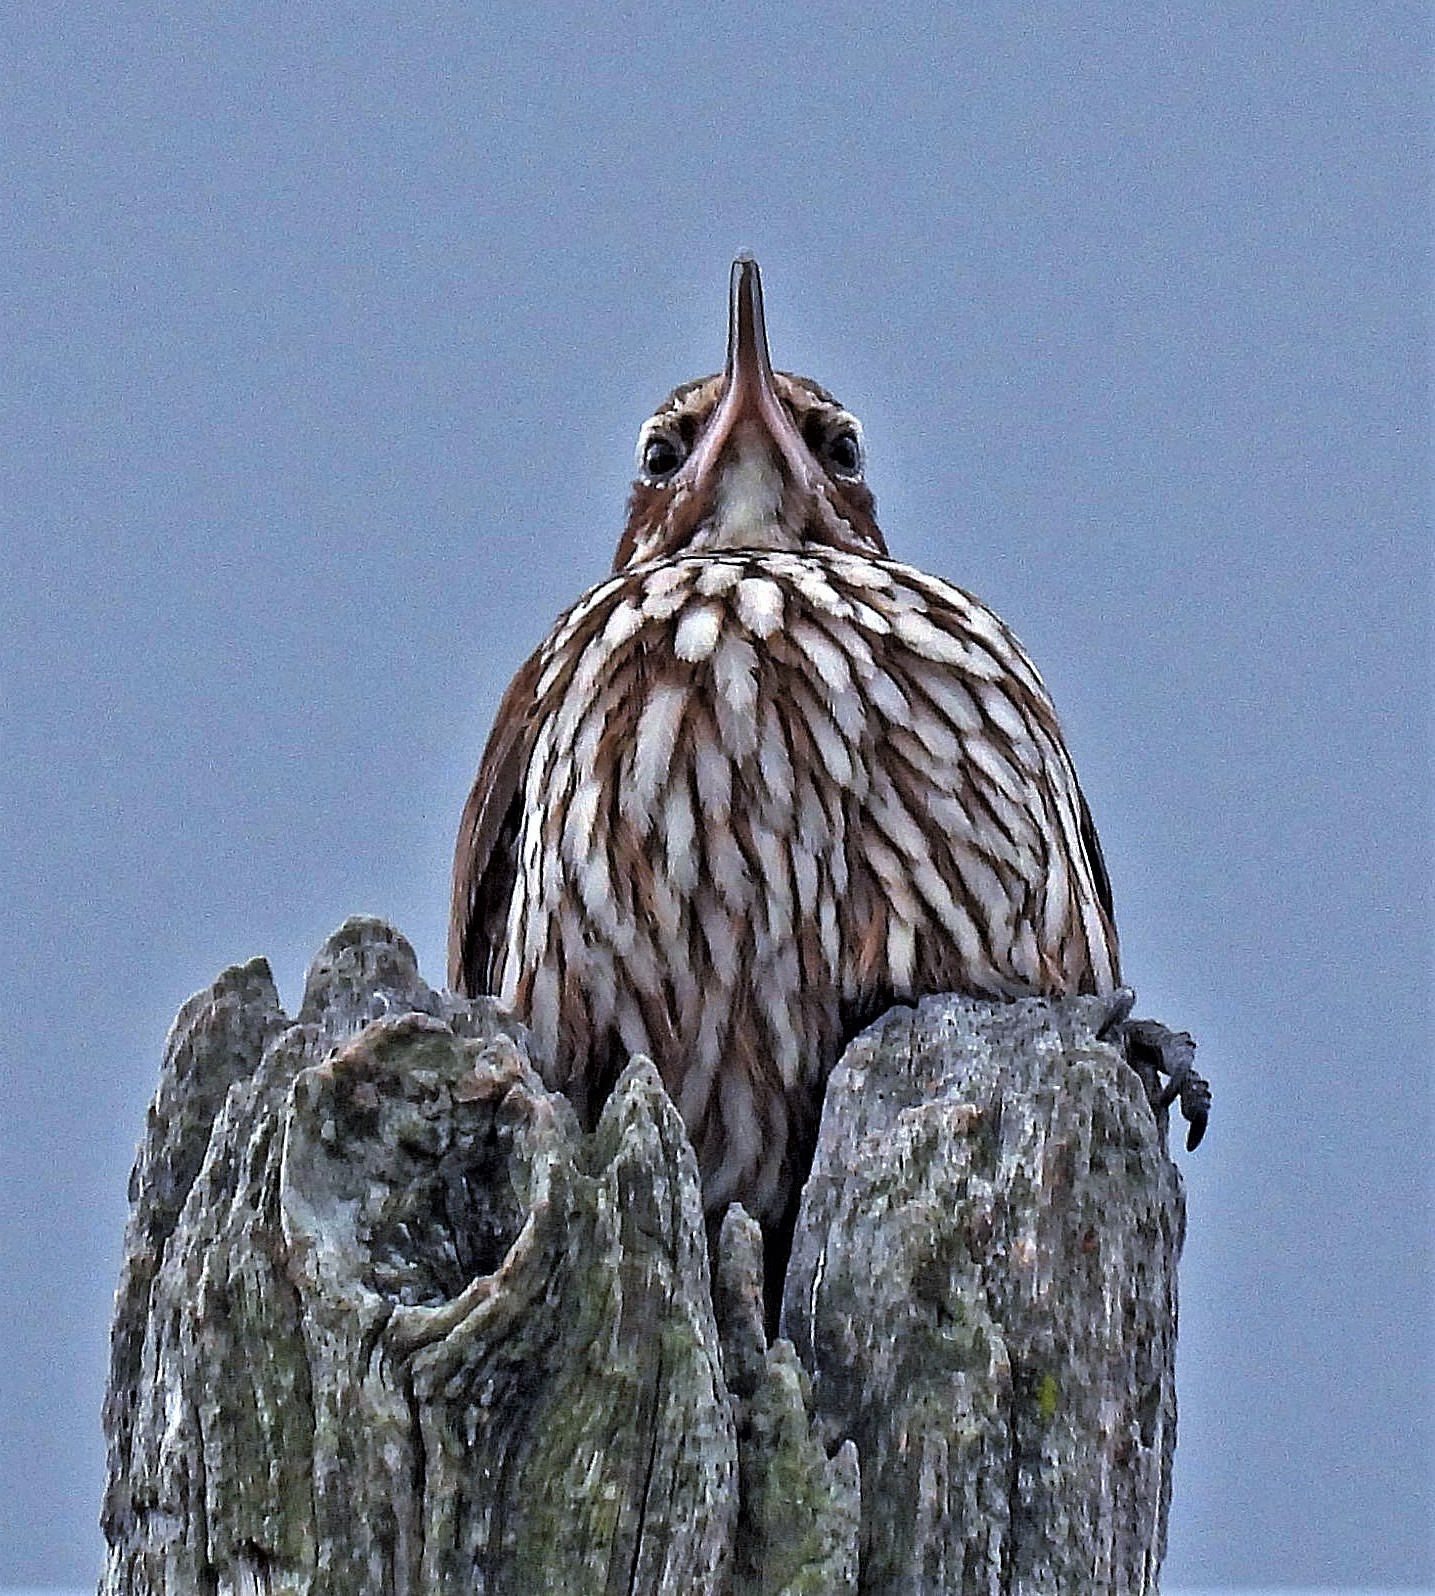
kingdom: Animalia
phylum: Chordata
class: Aves
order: Passeriformes
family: Furnariidae
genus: Drymornis
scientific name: Drymornis bridgesii
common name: Scimitar-billed woodcreeper
